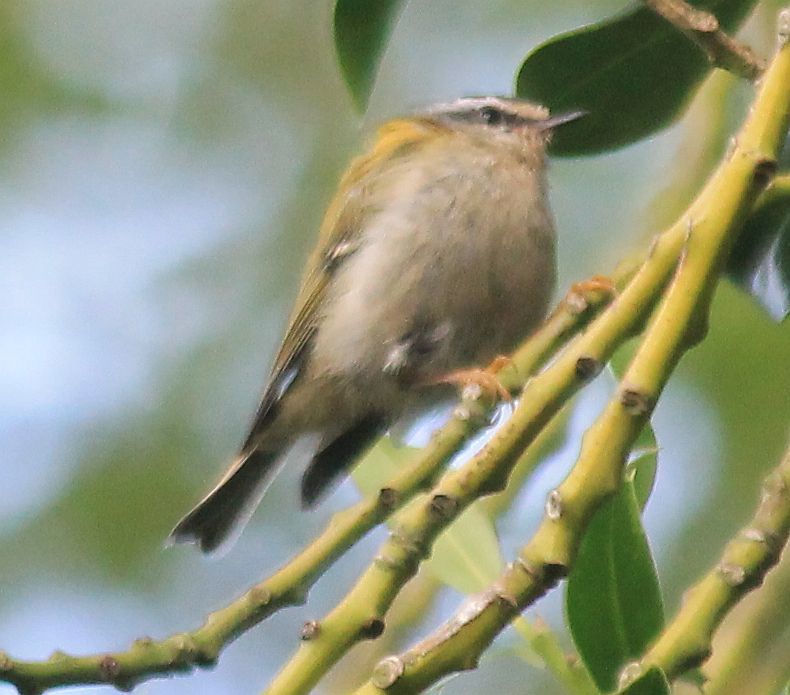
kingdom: Animalia
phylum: Chordata
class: Aves
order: Passeriformes
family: Regulidae
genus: Regulus
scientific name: Regulus ignicapilla
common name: Firecrest
